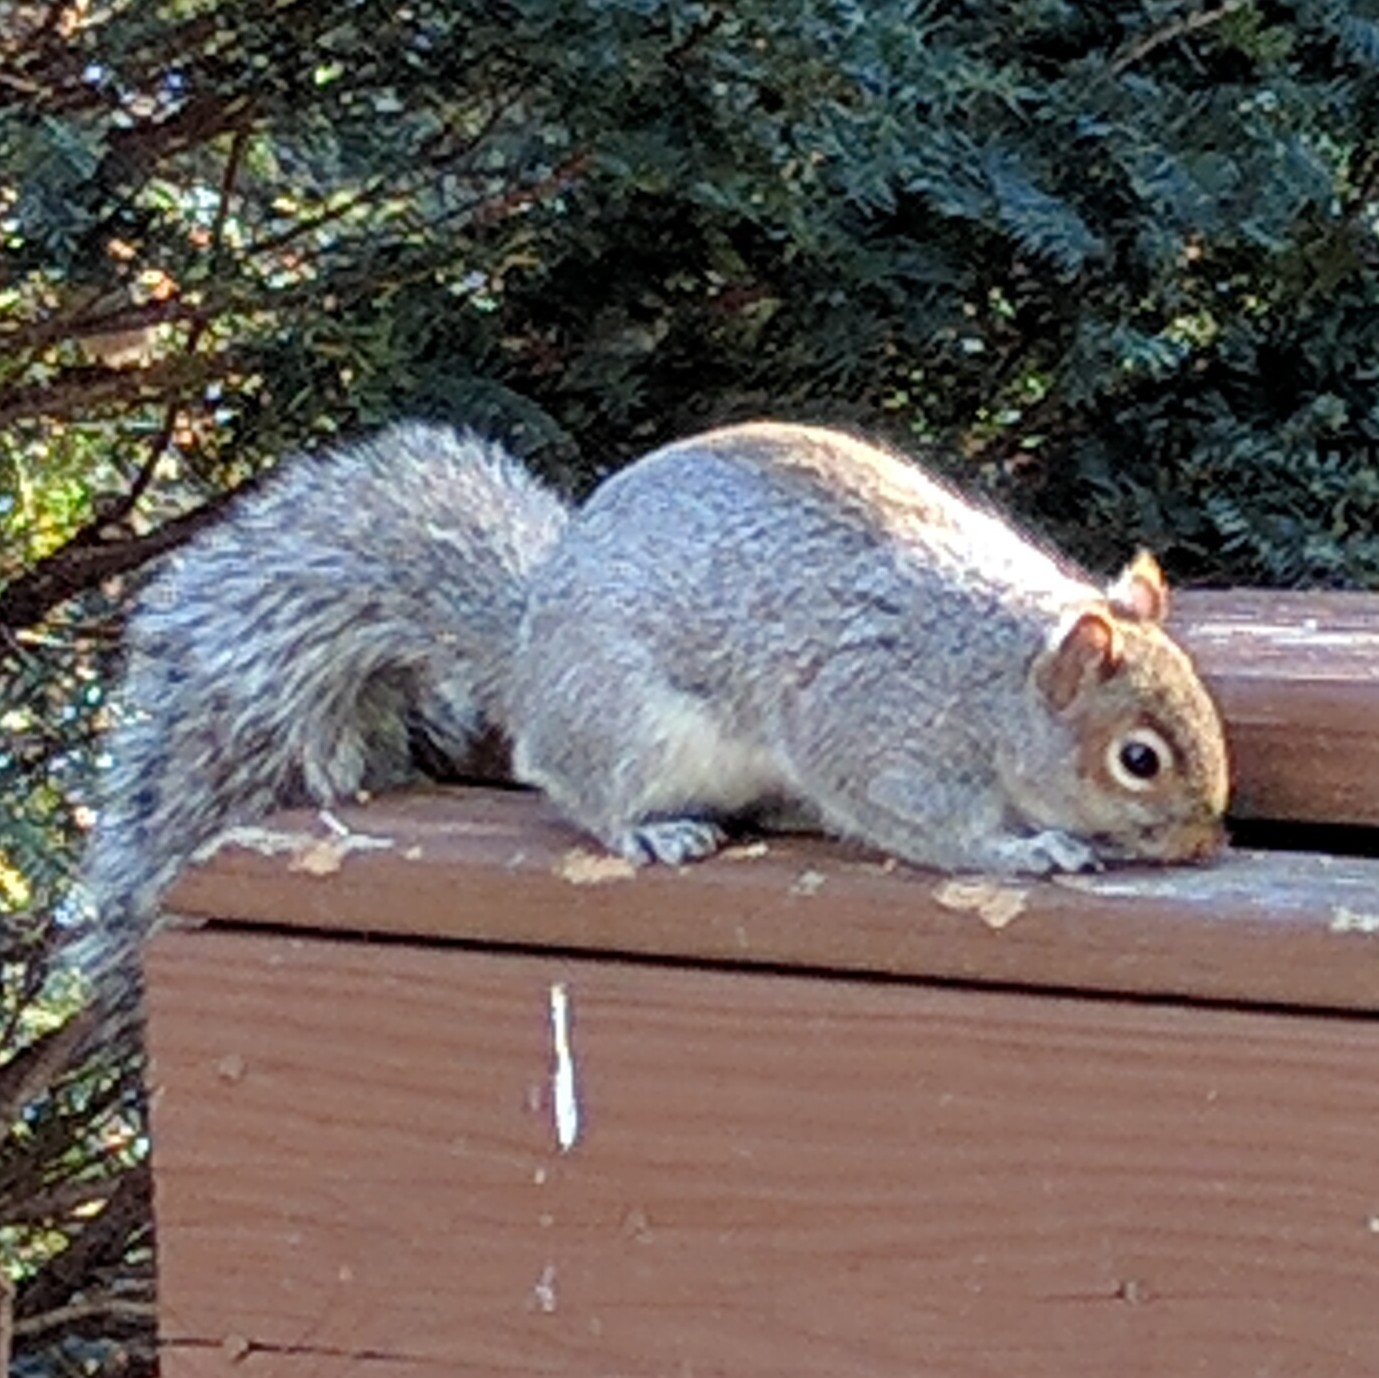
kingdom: Animalia
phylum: Chordata
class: Mammalia
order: Rodentia
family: Sciuridae
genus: Sciurus
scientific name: Sciurus carolinensis
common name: Eastern gray squirrel
